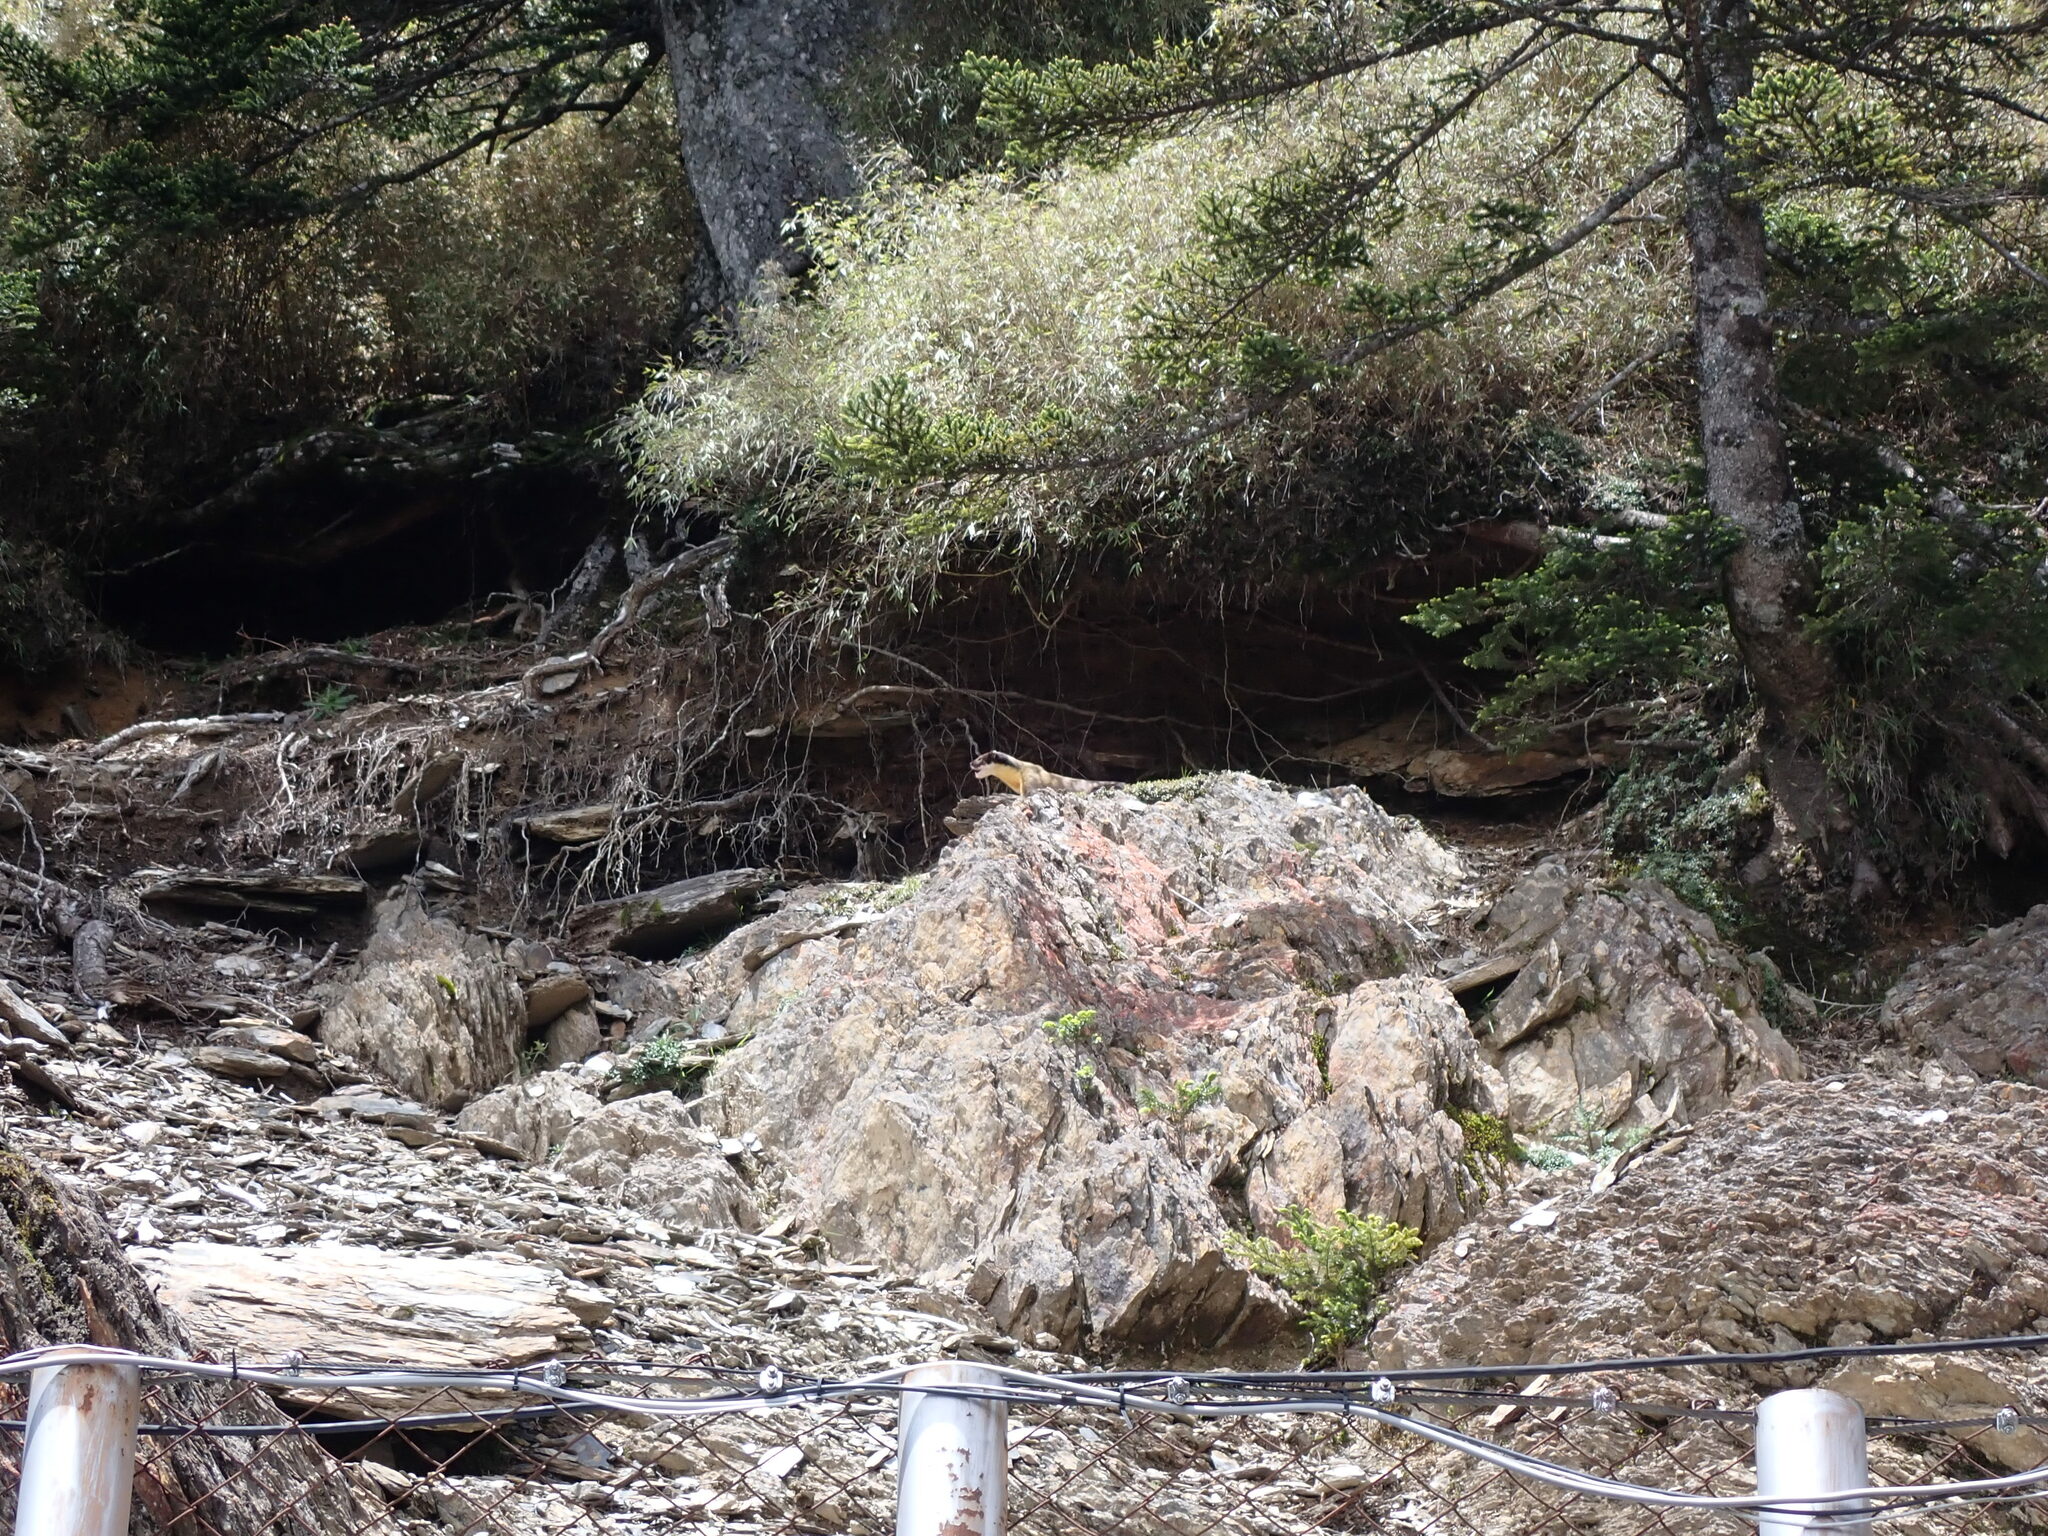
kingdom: Animalia
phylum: Chordata
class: Mammalia
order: Carnivora
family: Mustelidae
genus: Martes
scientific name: Martes flavigula
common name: Yellow-throated marten
